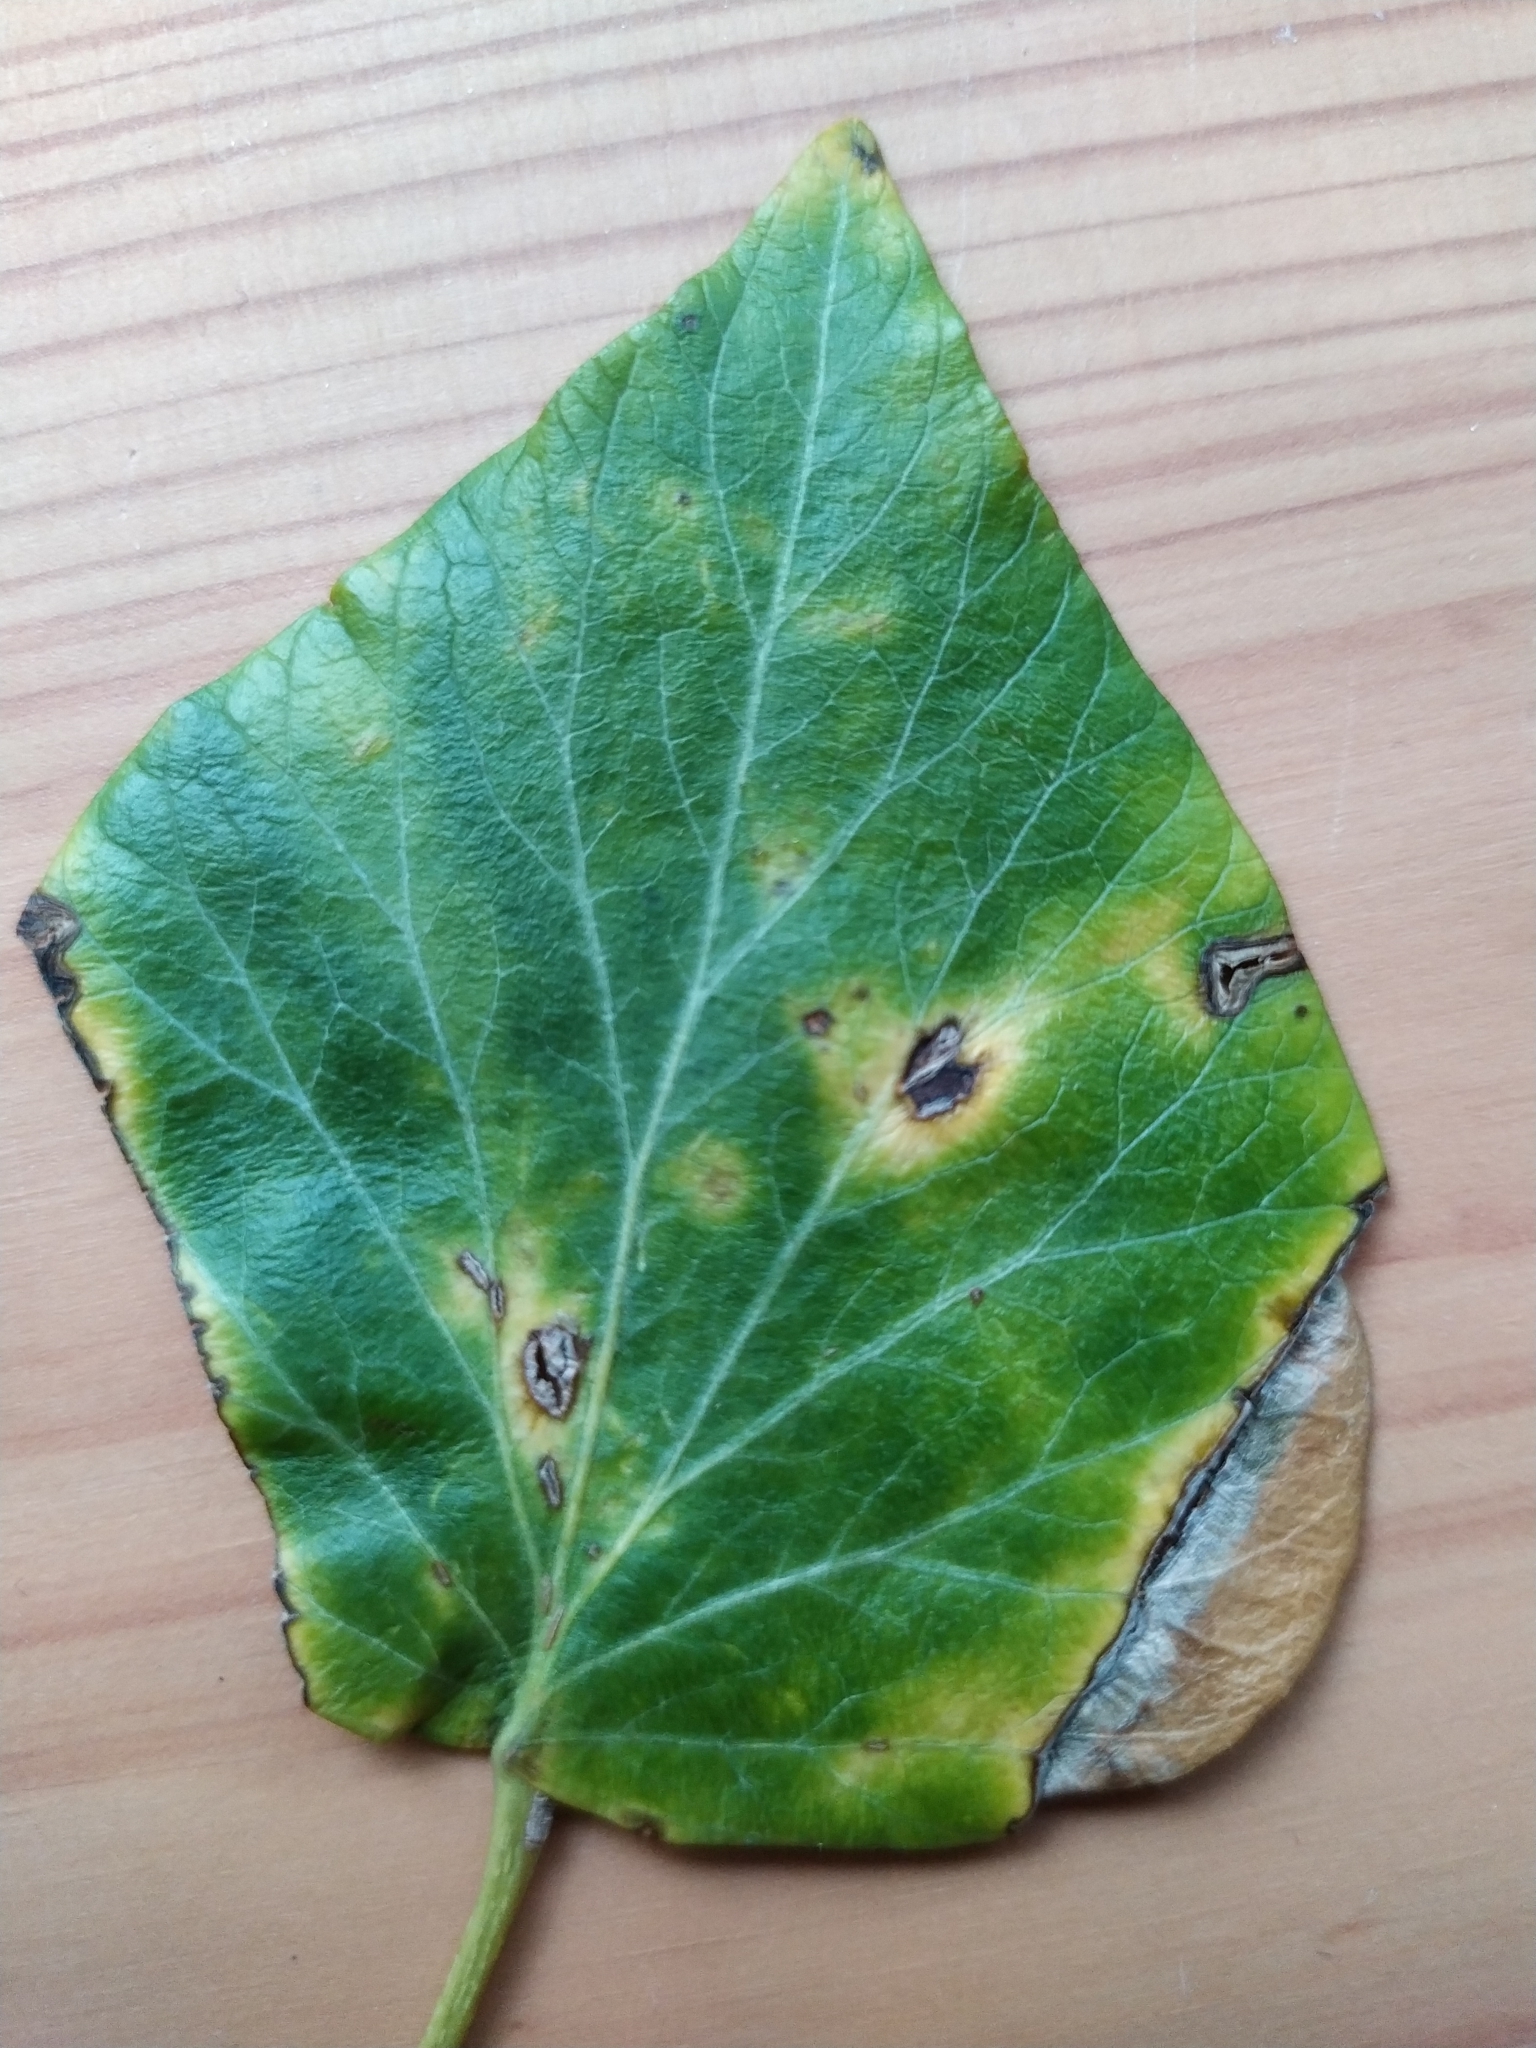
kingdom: Fungi
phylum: Ascomycota
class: Dothideomycetes
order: Capnodiales
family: Cladosporiaceae
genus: Cladosporium
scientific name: Cladosporium herbarum
